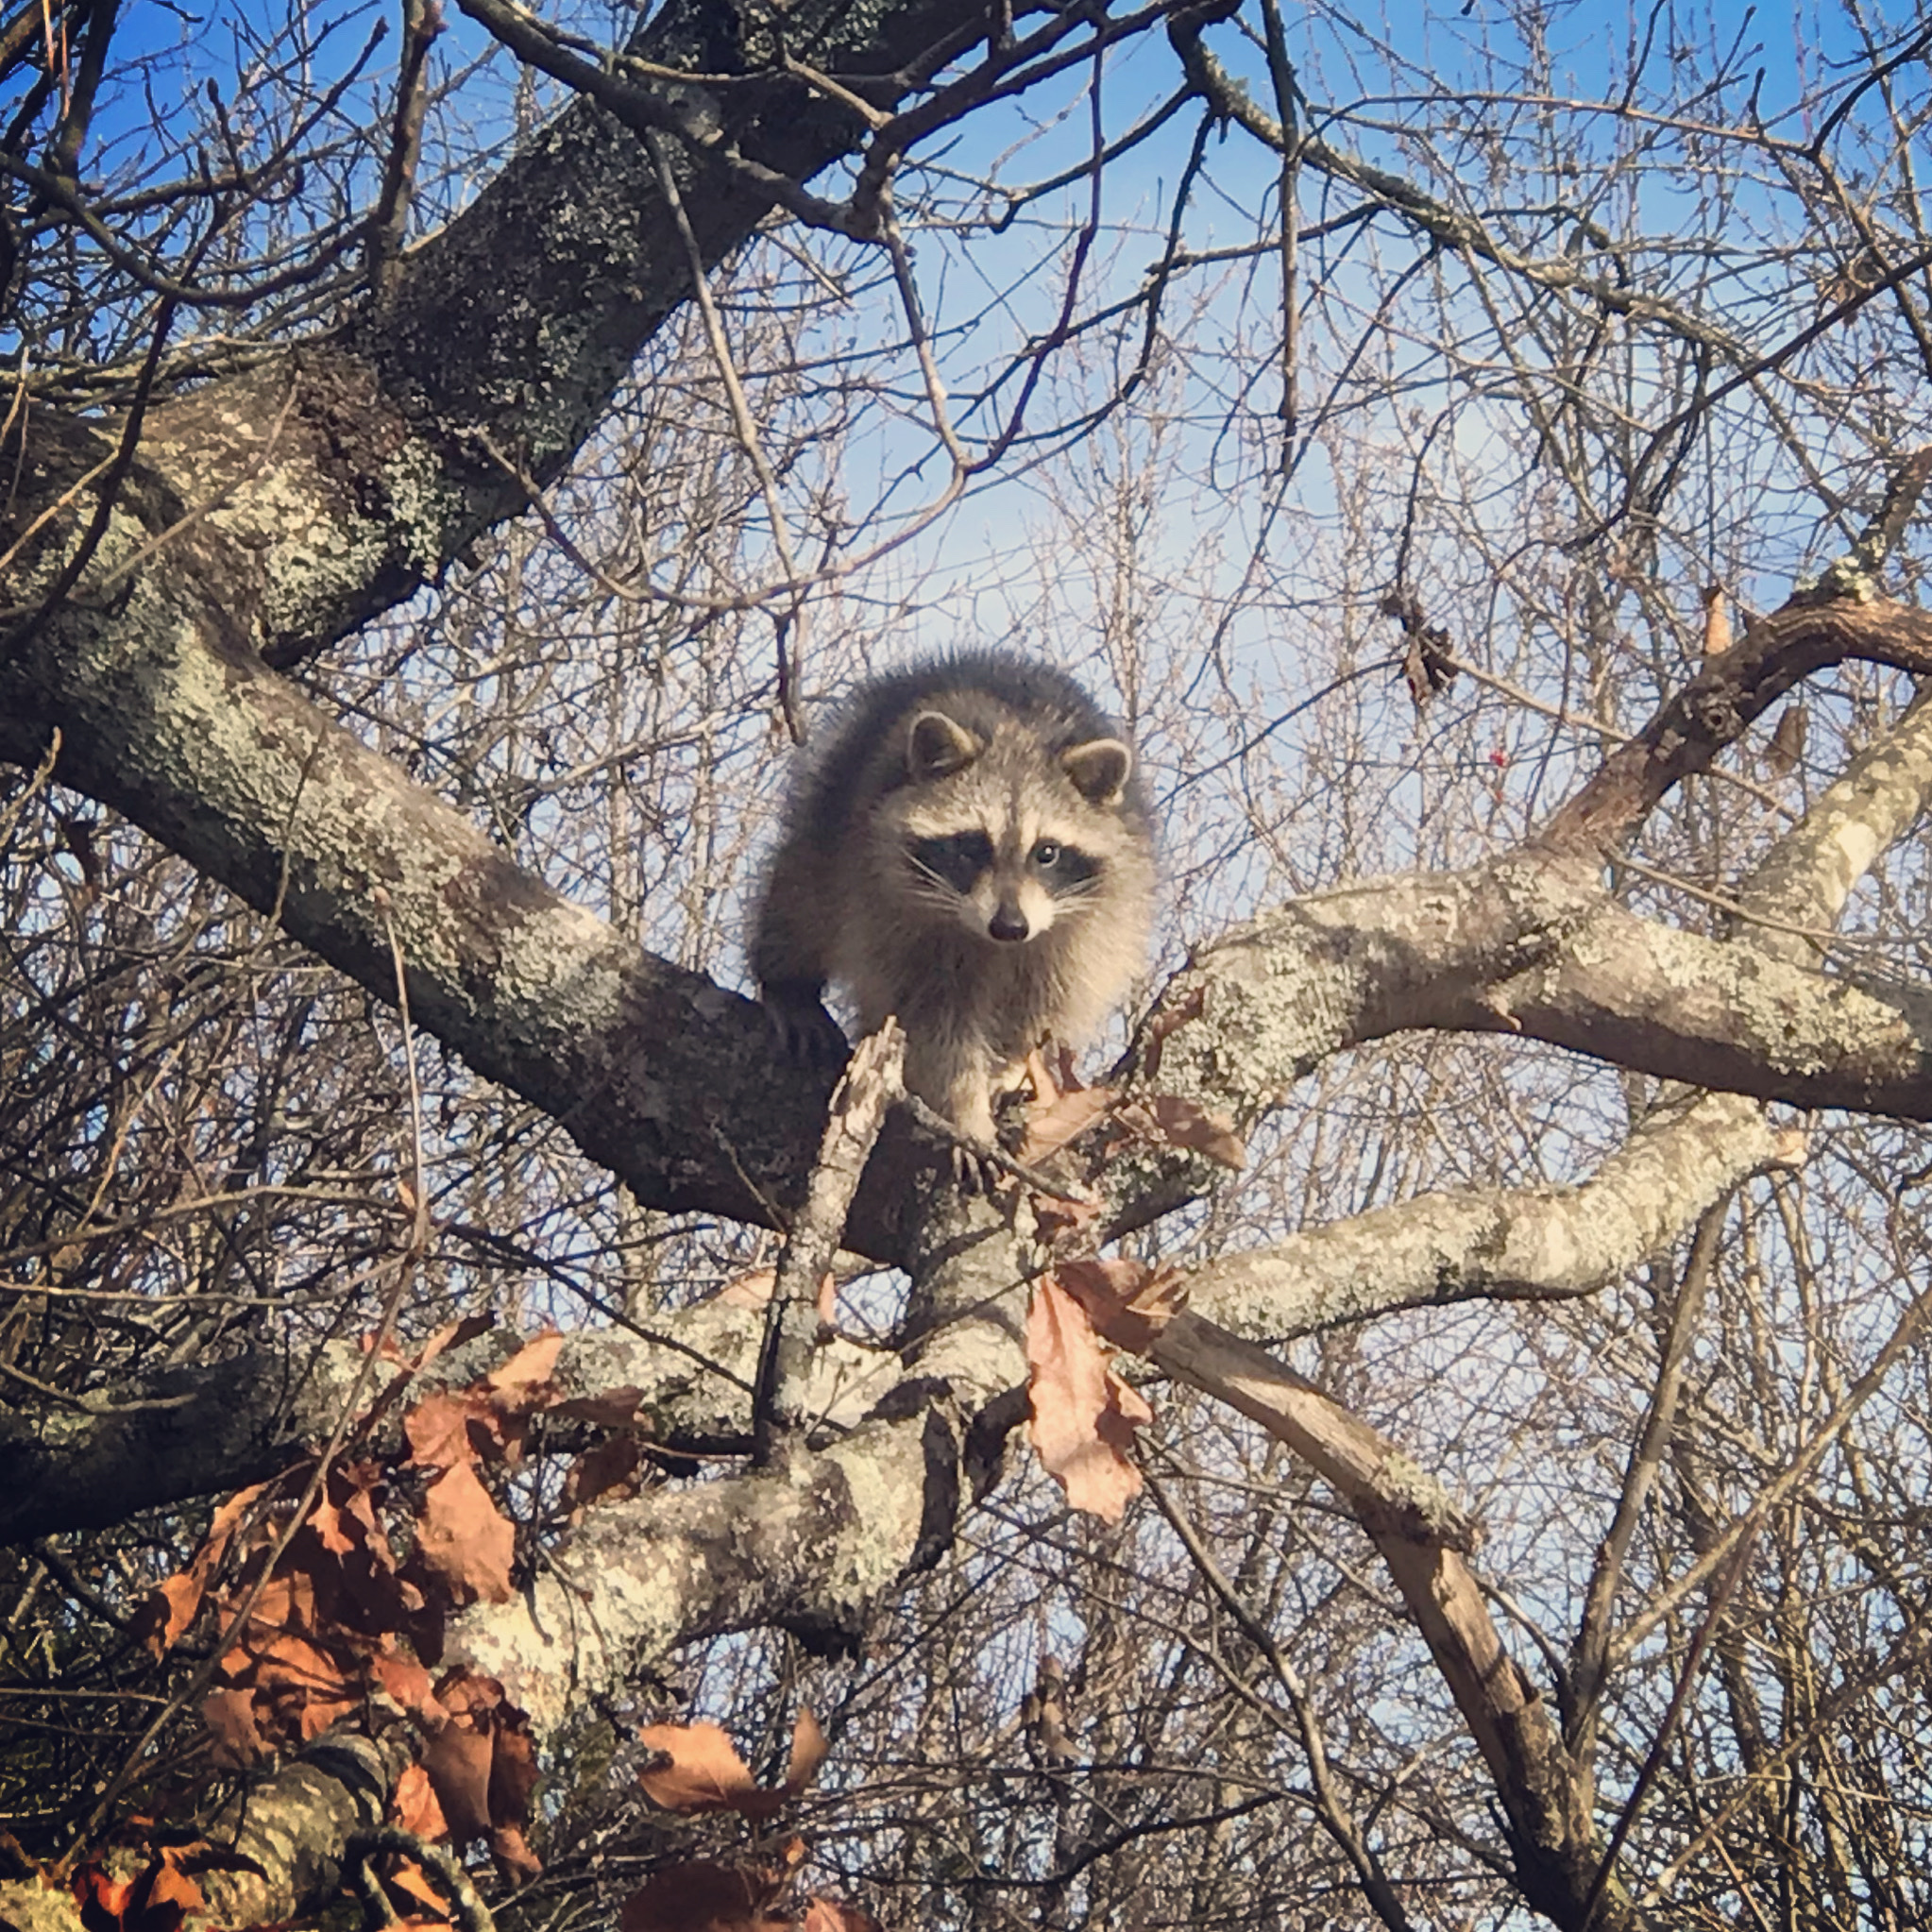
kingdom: Animalia
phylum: Chordata
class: Mammalia
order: Carnivora
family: Procyonidae
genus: Procyon
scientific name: Procyon lotor
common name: Raccoon
